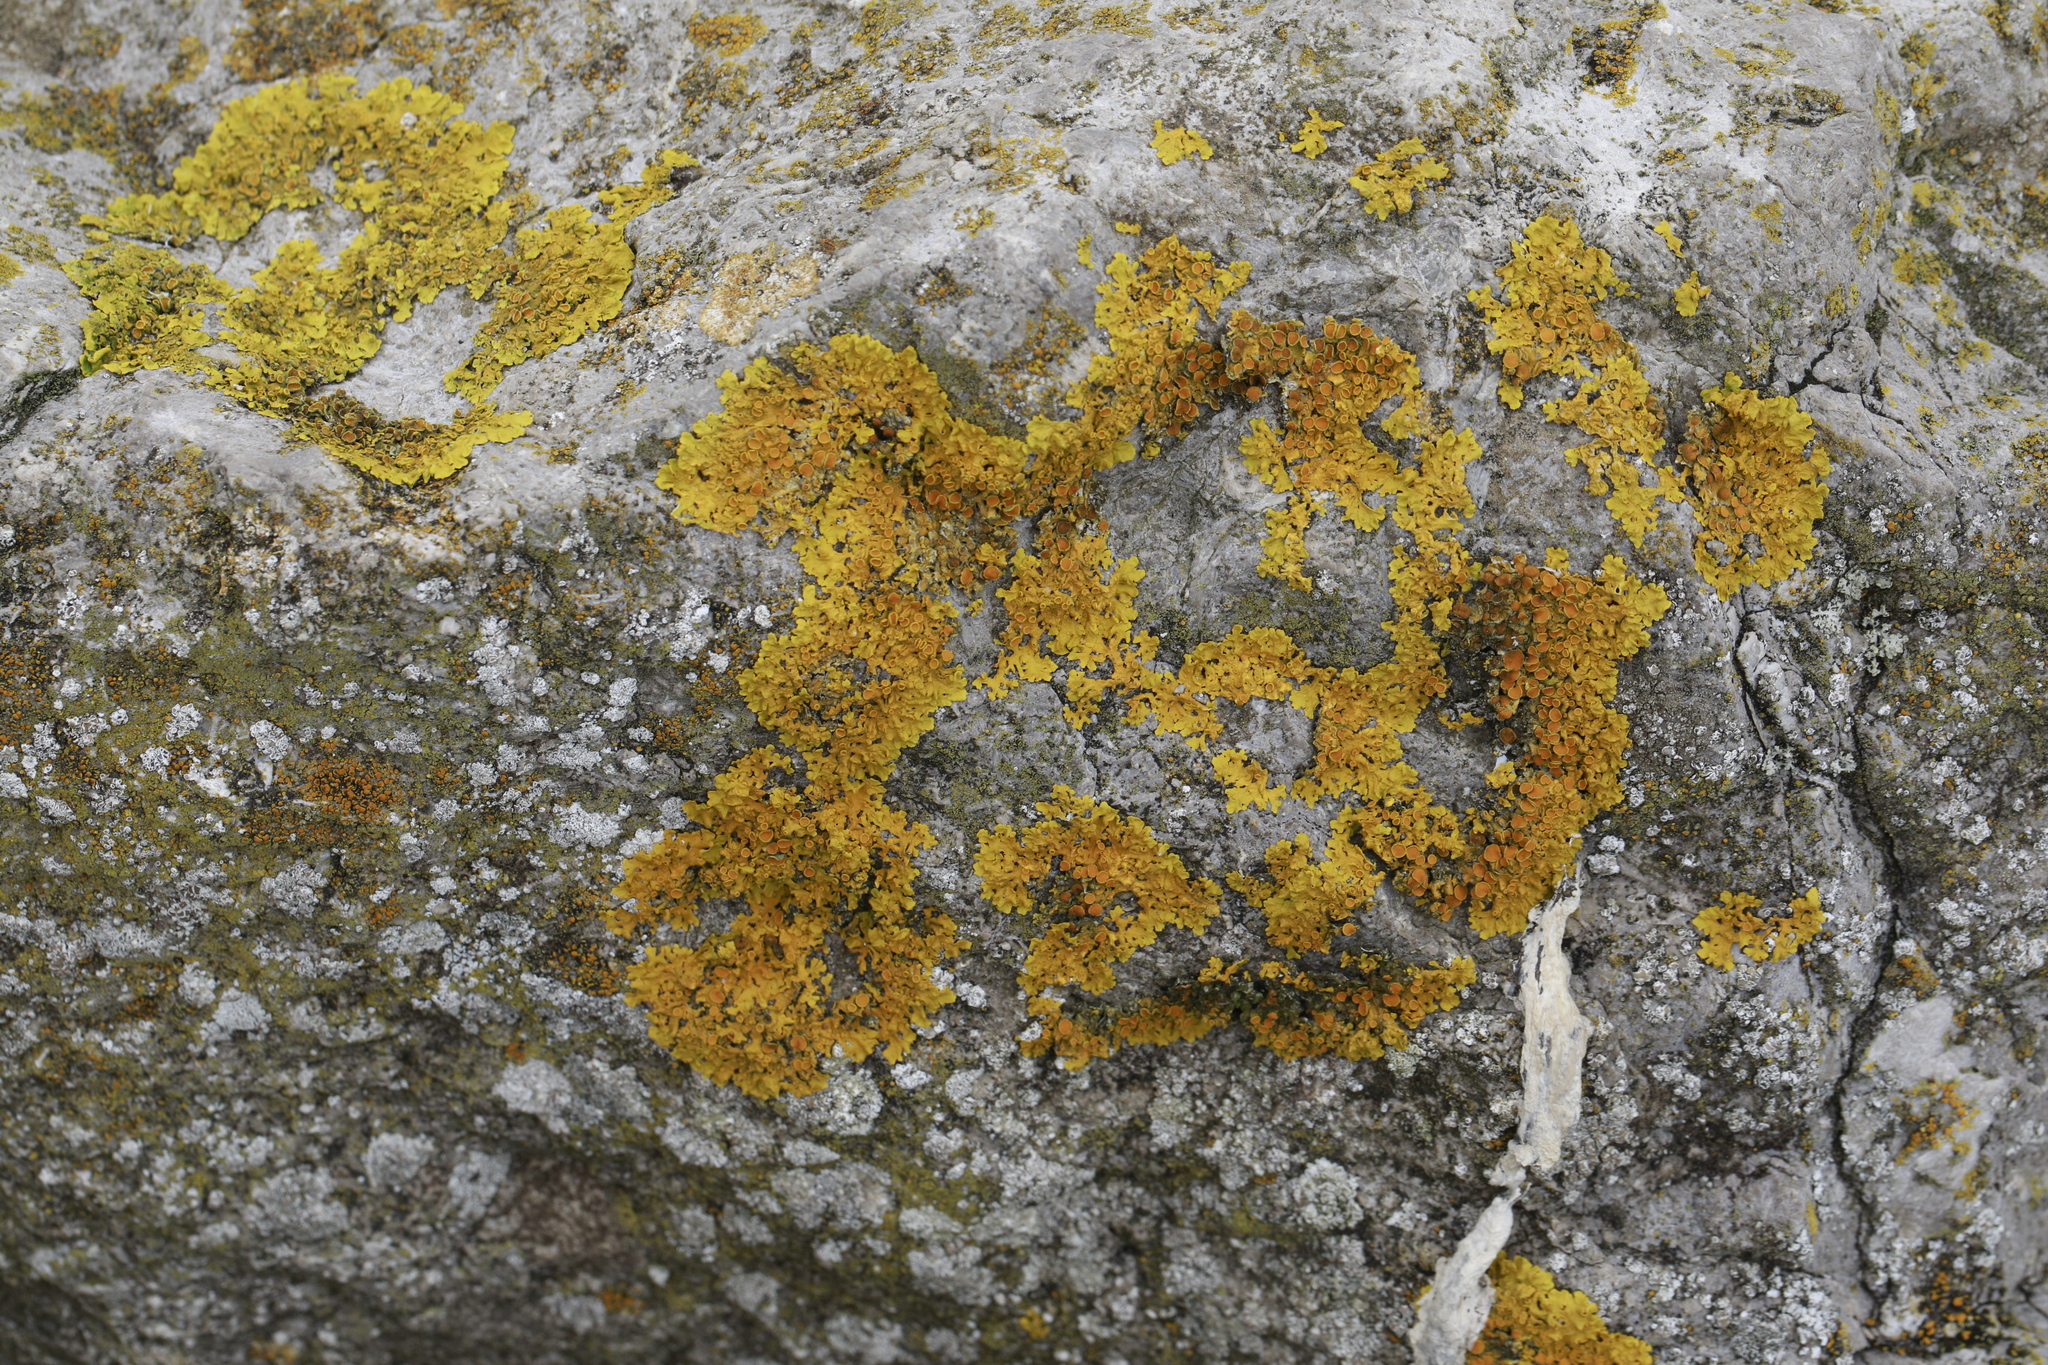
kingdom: Fungi
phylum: Ascomycota
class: Lecanoromycetes
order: Teloschistales
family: Teloschistaceae
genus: Xanthoria
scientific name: Xanthoria parietina
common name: Common orange lichen
